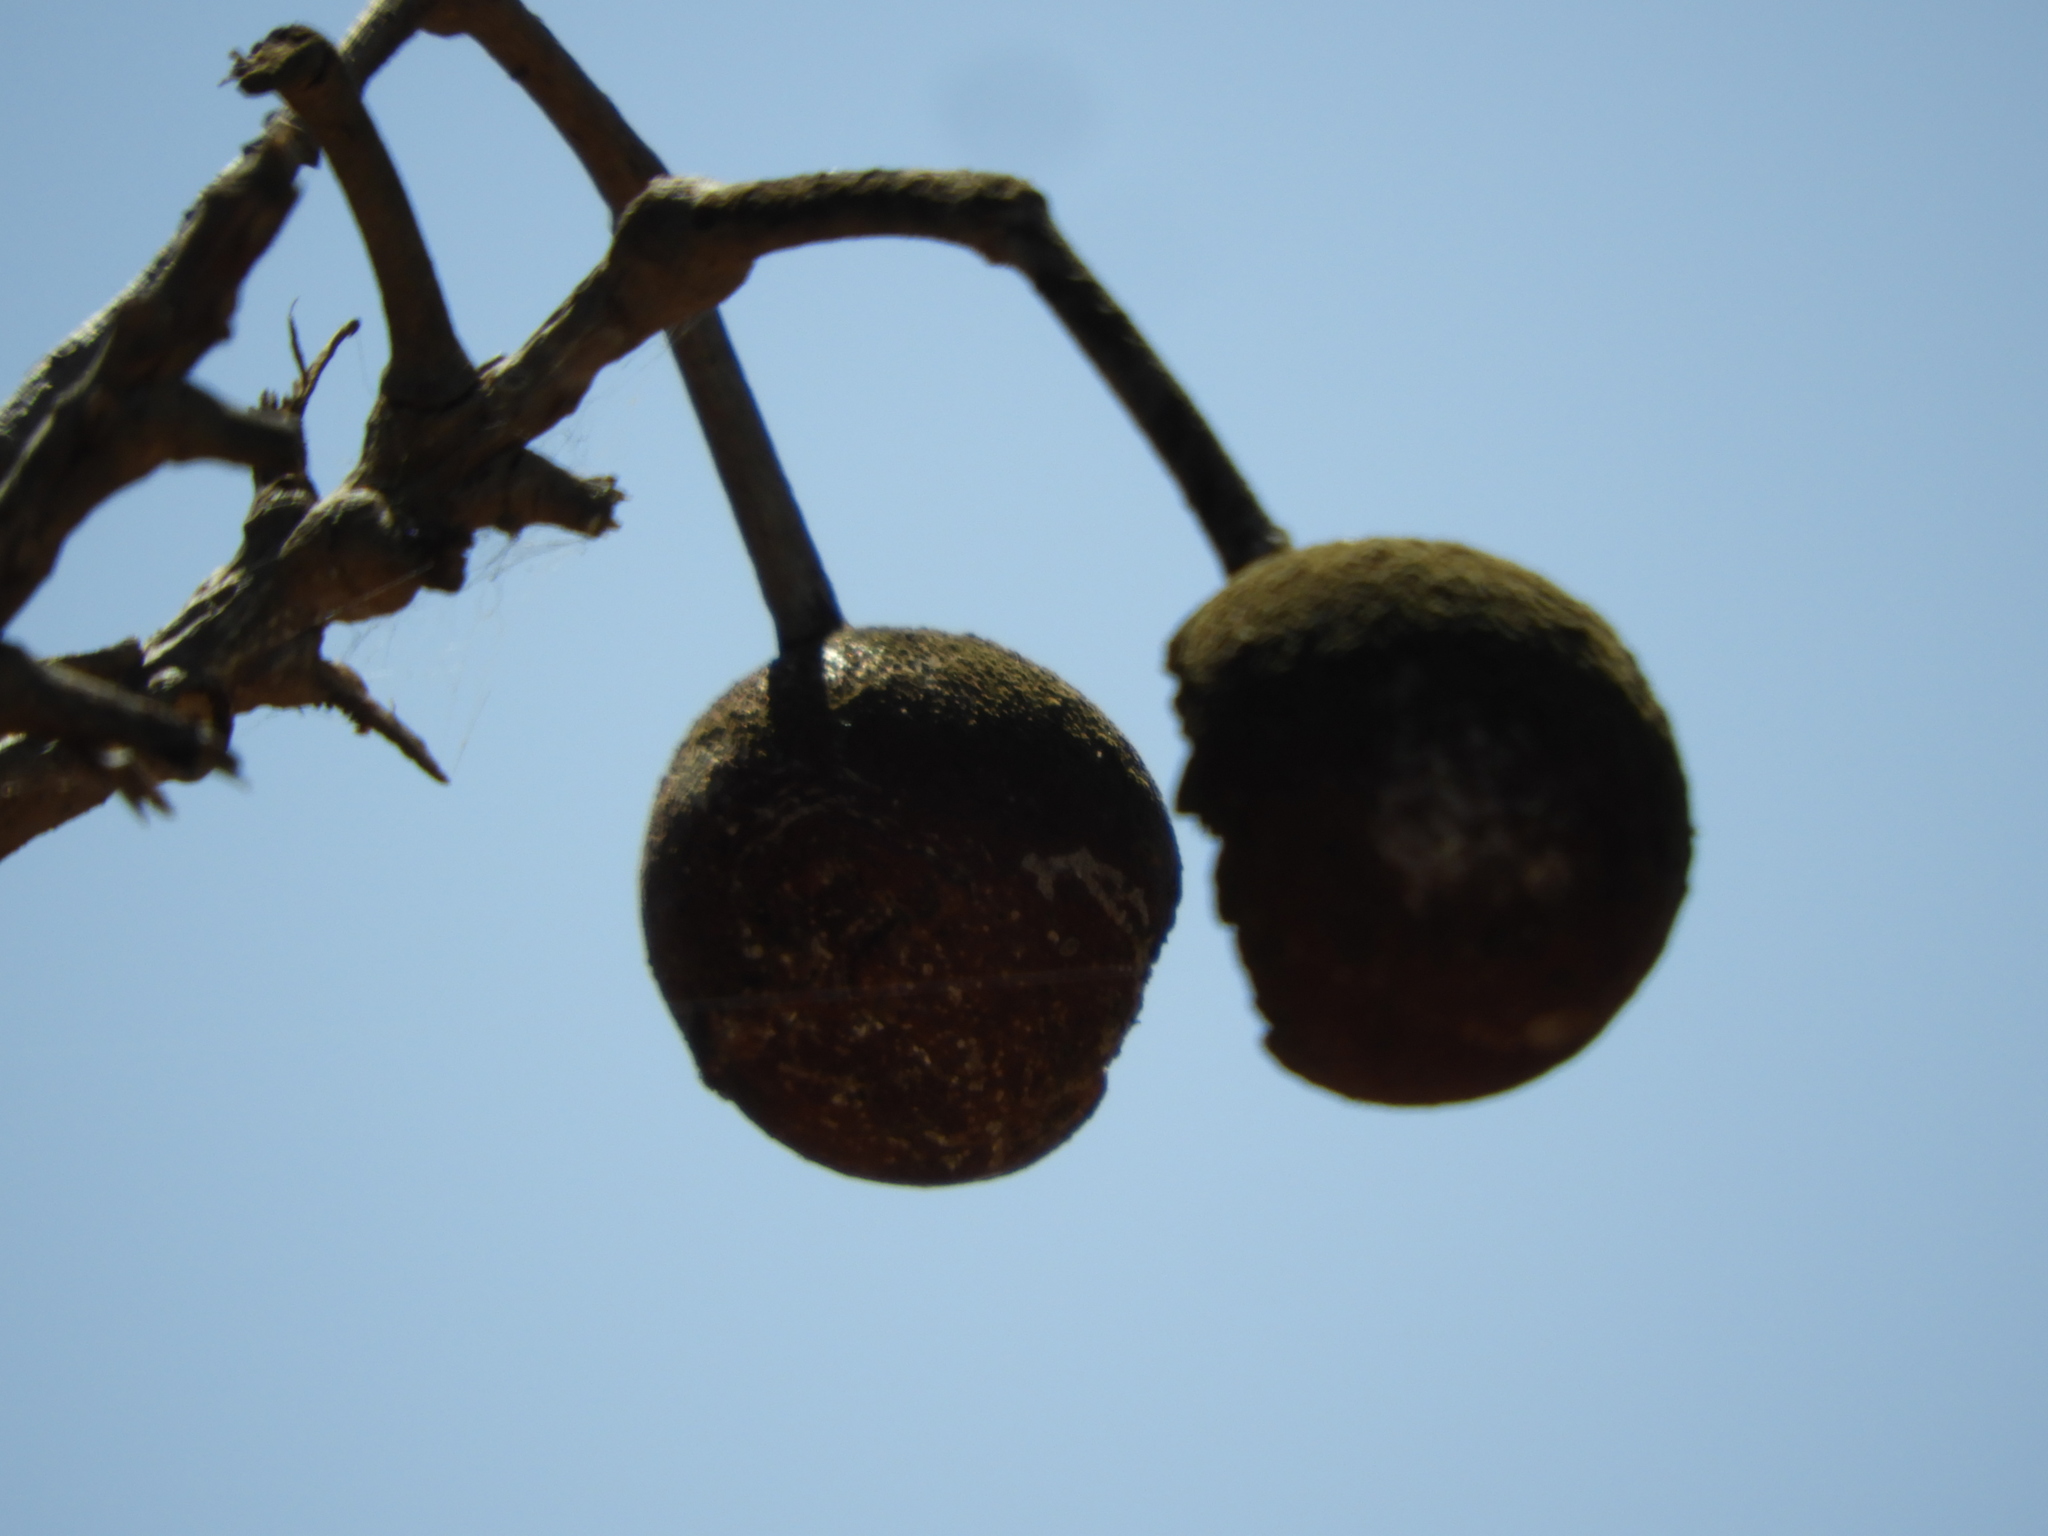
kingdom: Plantae
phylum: Tracheophyta
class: Magnoliopsida
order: Brassicales
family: Capparaceae
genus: Crateva
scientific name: Crateva tapia
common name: Garlic-pear
